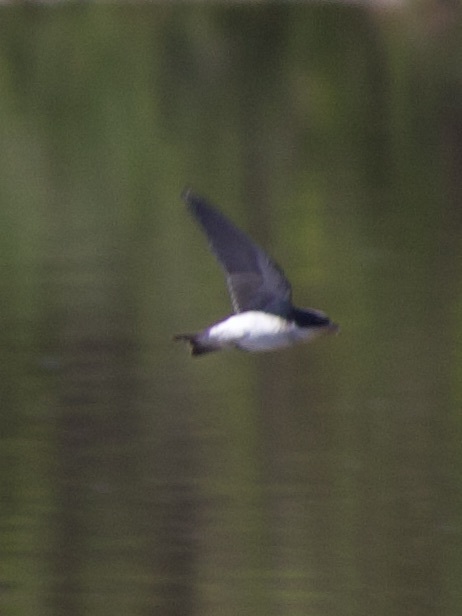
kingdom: Animalia
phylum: Chordata
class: Aves
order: Passeriformes
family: Hirundinidae
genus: Tachycineta
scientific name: Tachycineta leucopyga
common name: Chilean swallow
